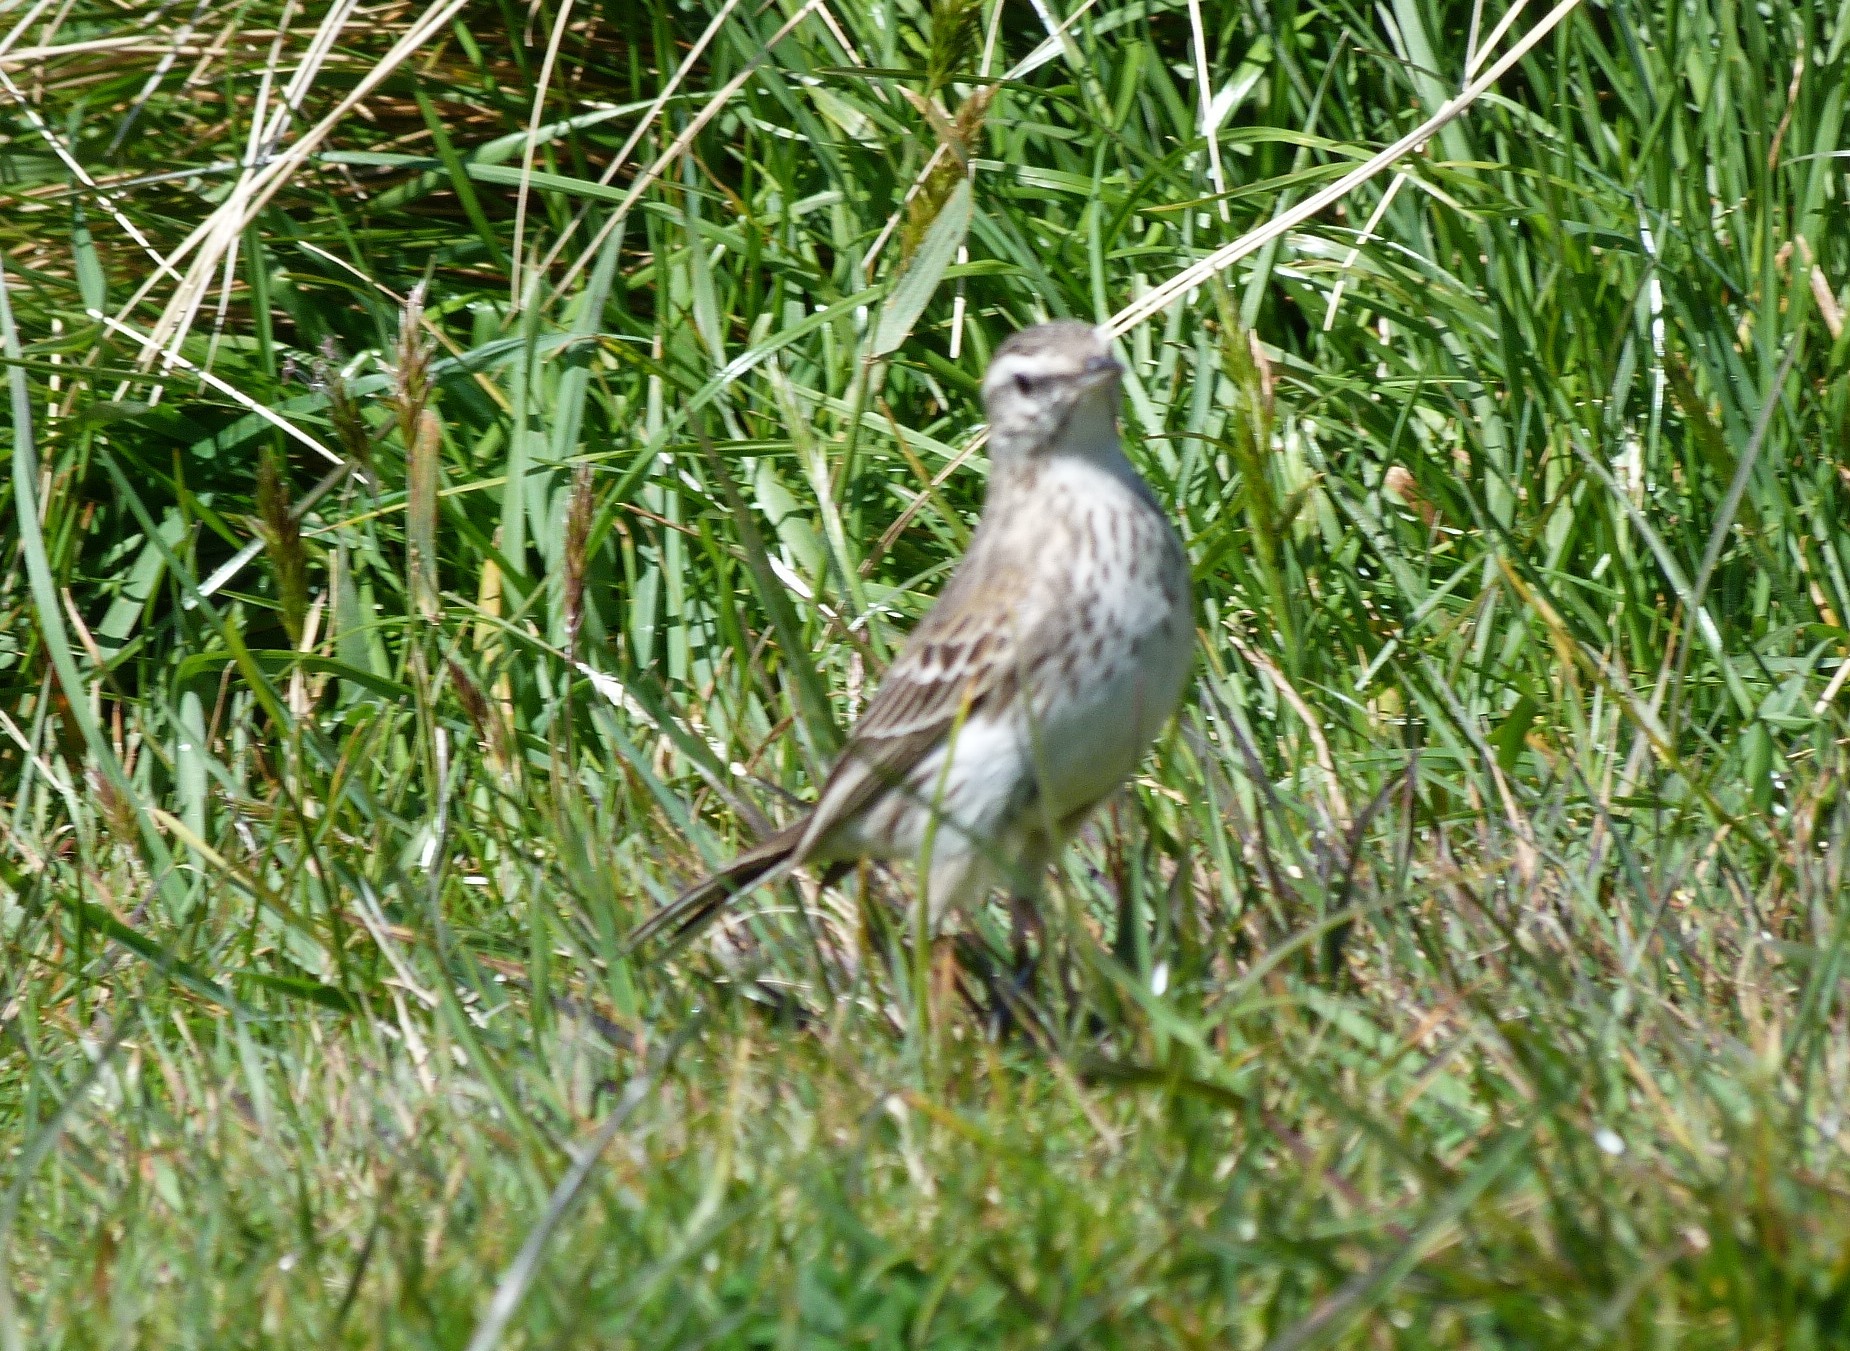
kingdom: Animalia
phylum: Chordata
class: Aves
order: Passeriformes
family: Motacillidae
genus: Anthus
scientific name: Anthus novaeseelandiae
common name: New zealand pipit
